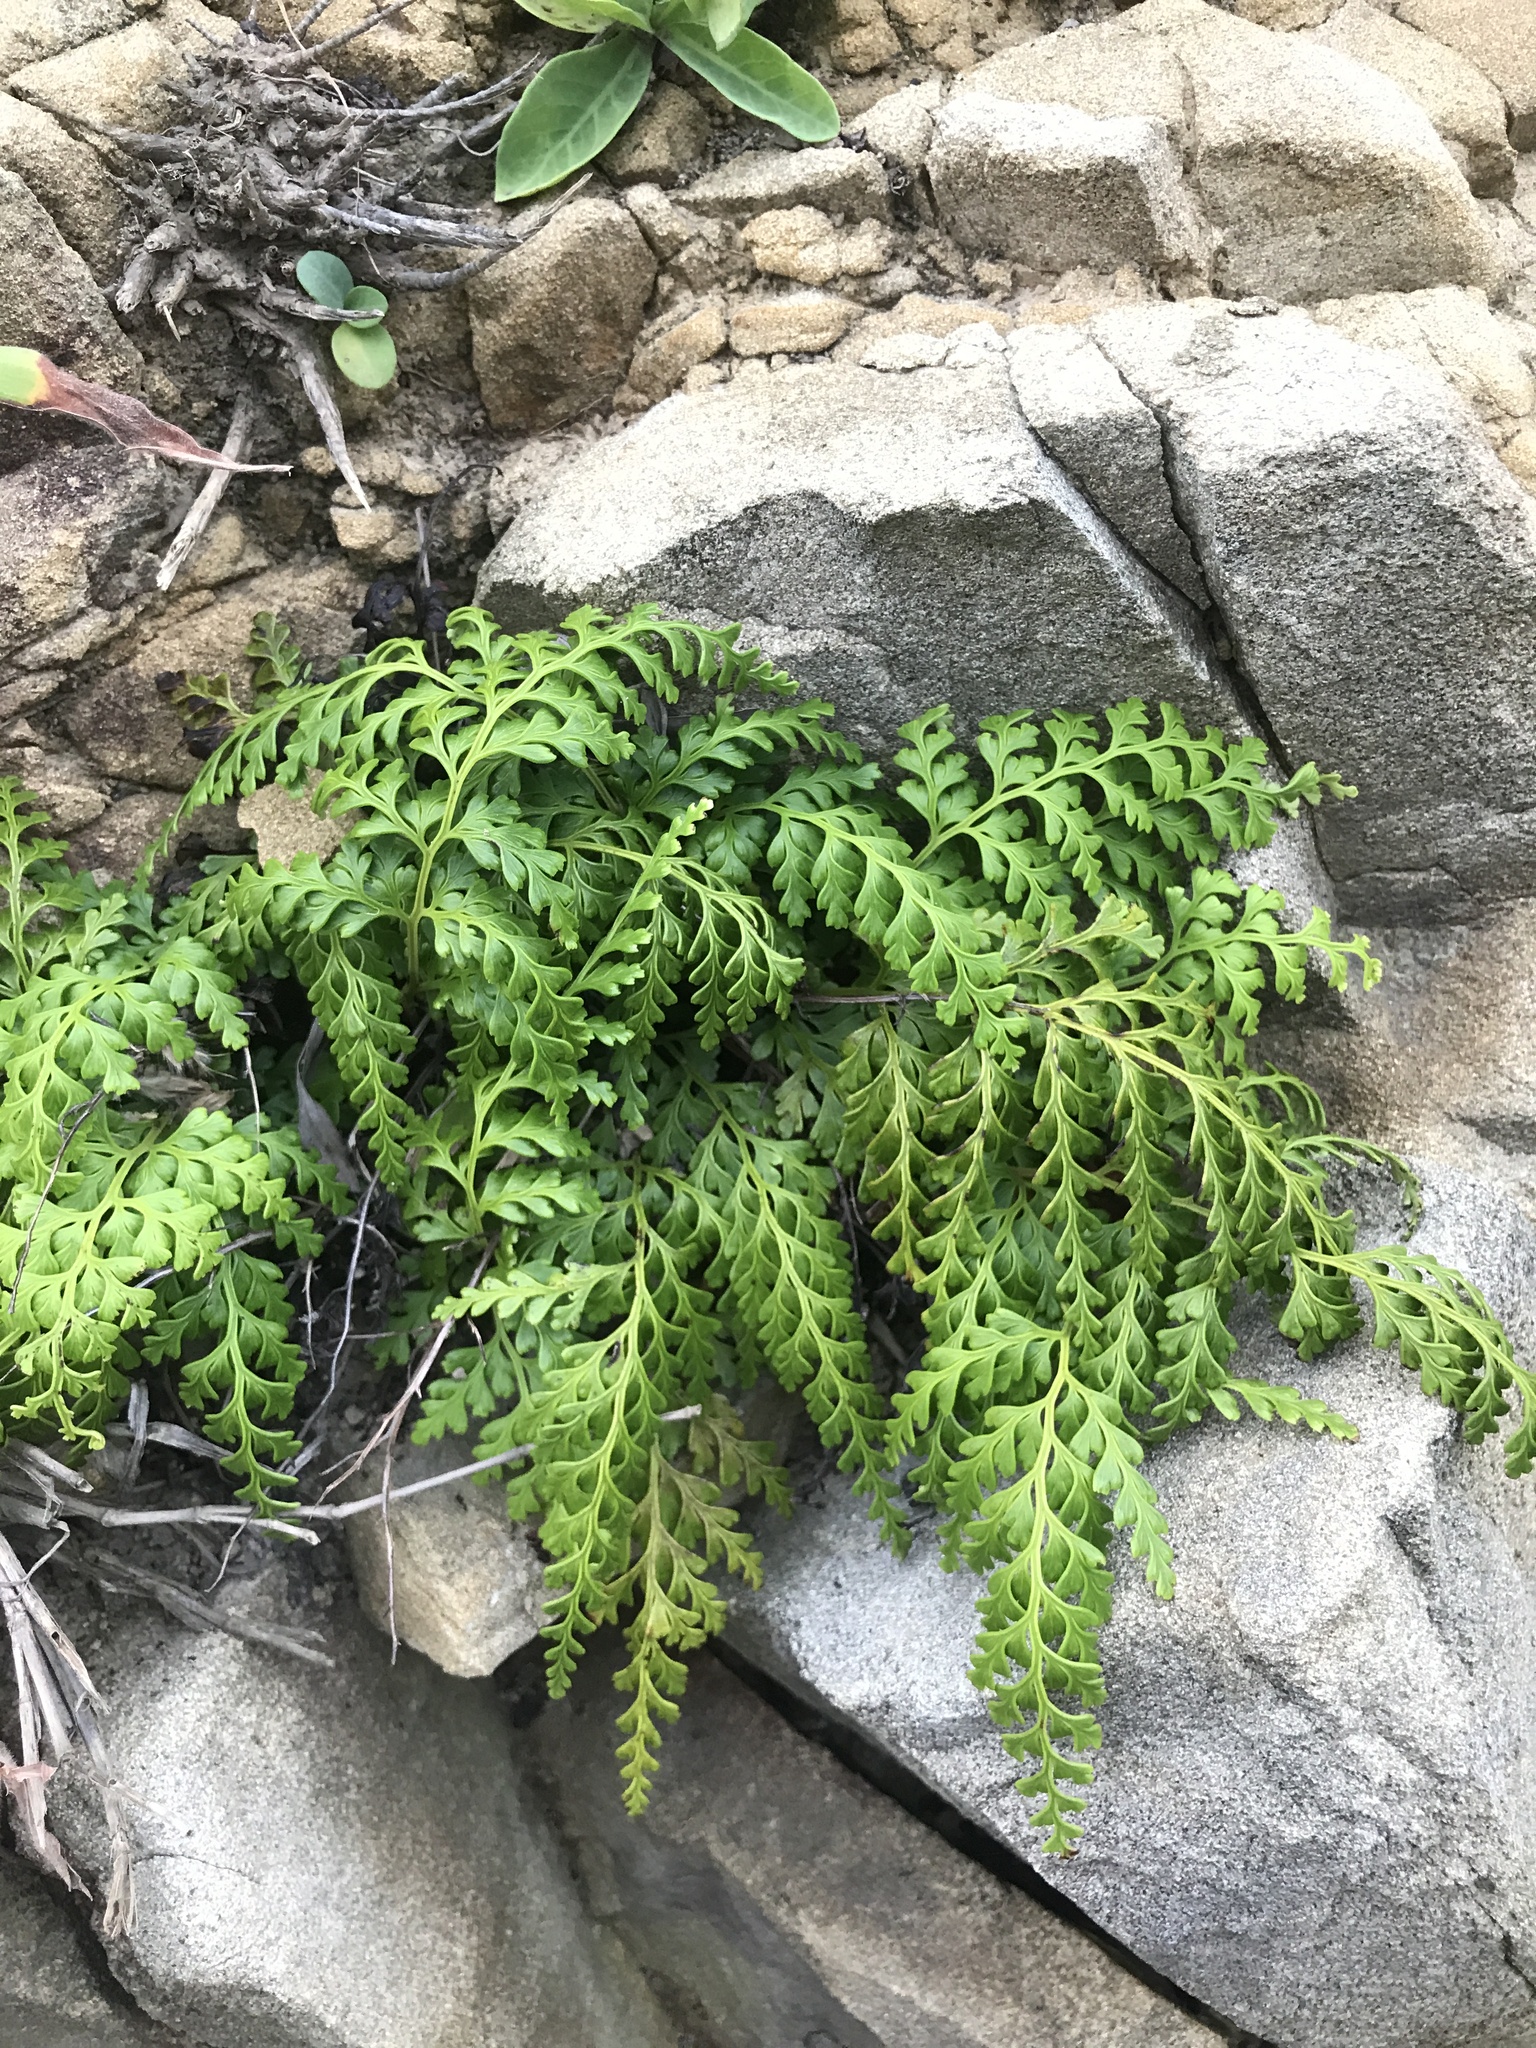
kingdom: Plantae
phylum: Tracheophyta
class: Polypodiopsida
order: Polypodiales
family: Lindsaeaceae
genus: Odontosoria
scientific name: Odontosoria biflora
